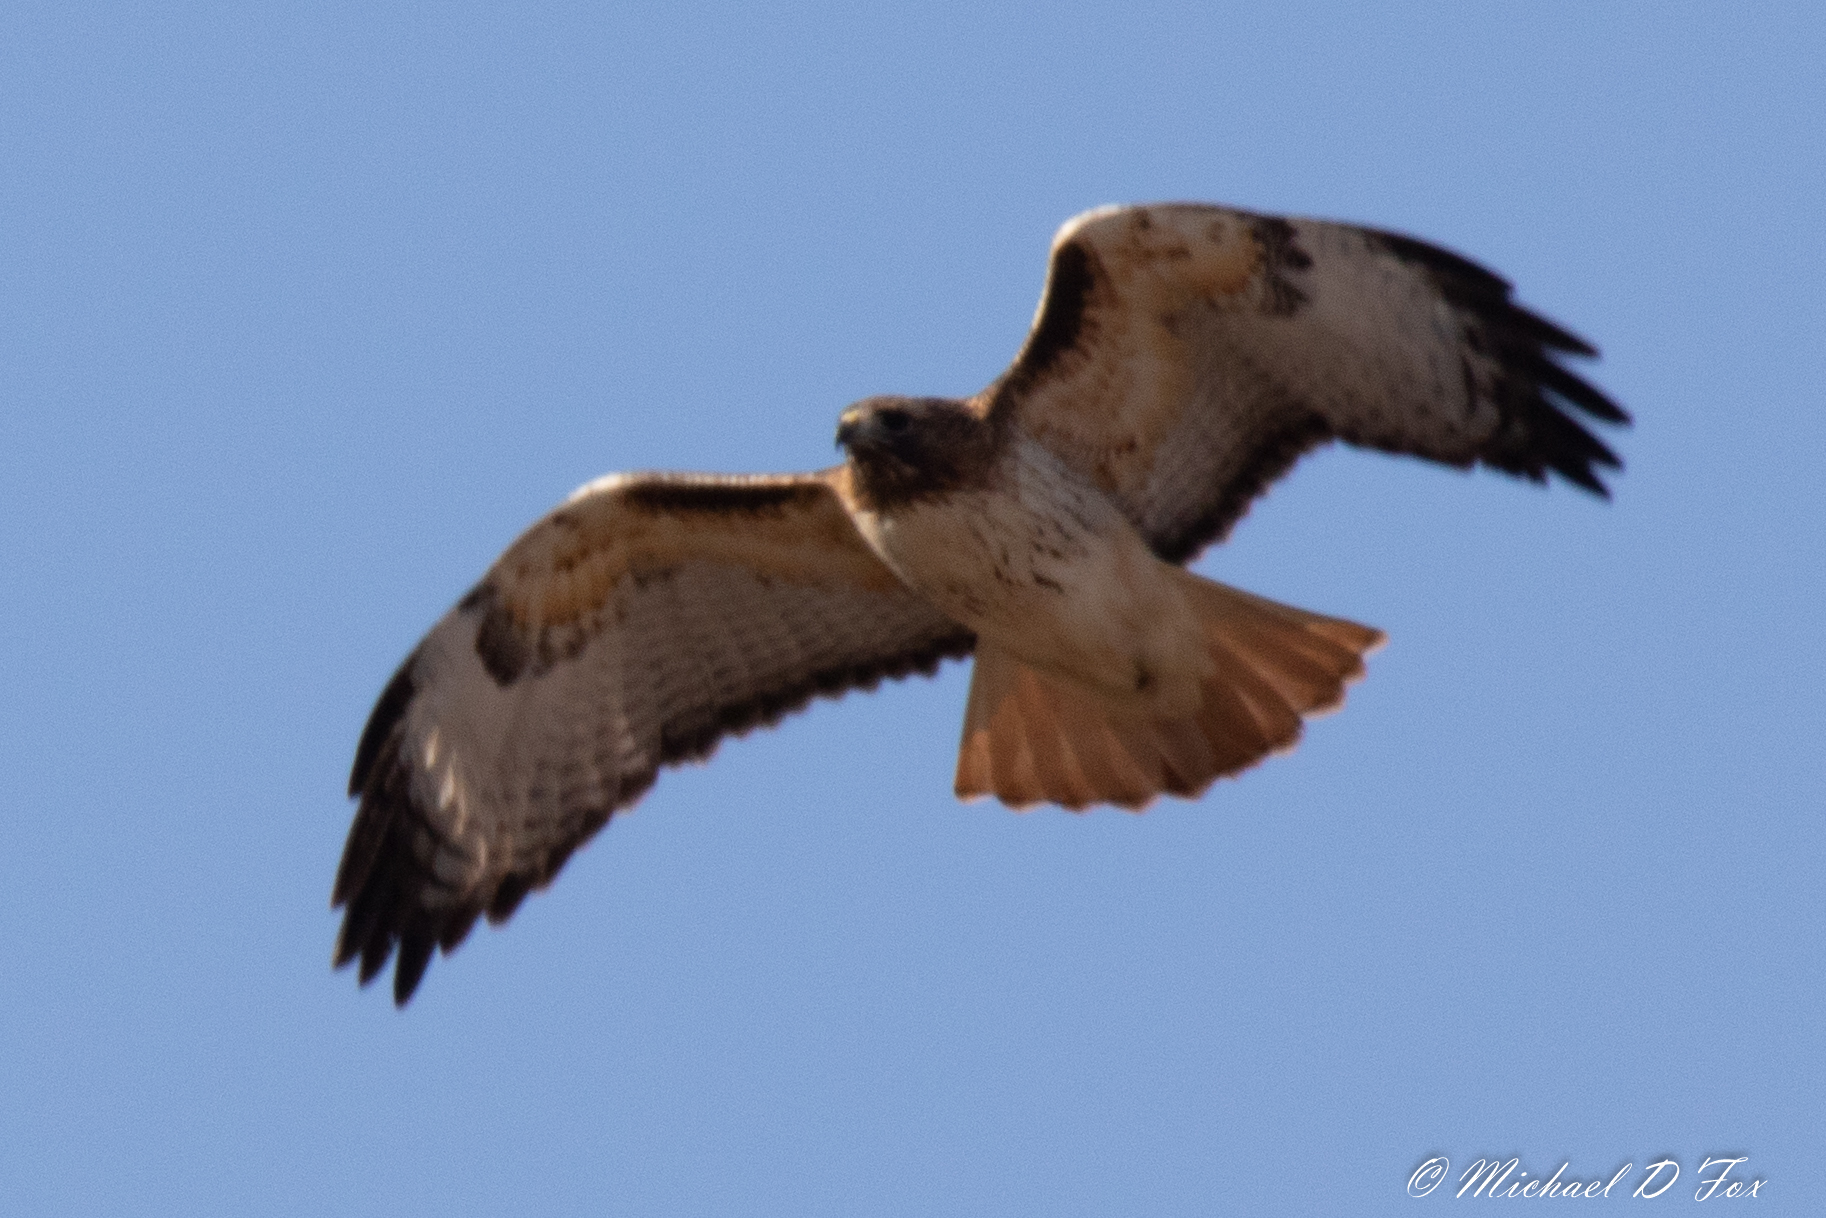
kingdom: Animalia
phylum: Chordata
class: Aves
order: Accipitriformes
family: Accipitridae
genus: Buteo
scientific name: Buteo jamaicensis
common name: Red-tailed hawk
